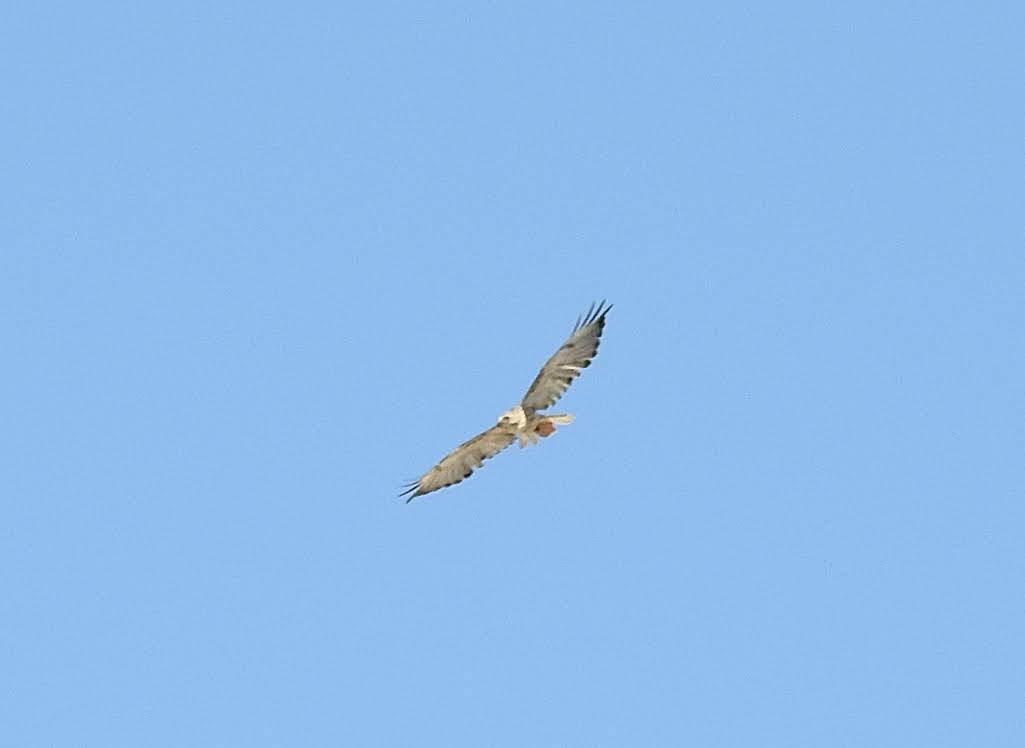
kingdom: Animalia
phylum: Chordata
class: Aves
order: Accipitriformes
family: Accipitridae
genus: Buteo
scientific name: Buteo jamaicensis
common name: Red-tailed hawk
